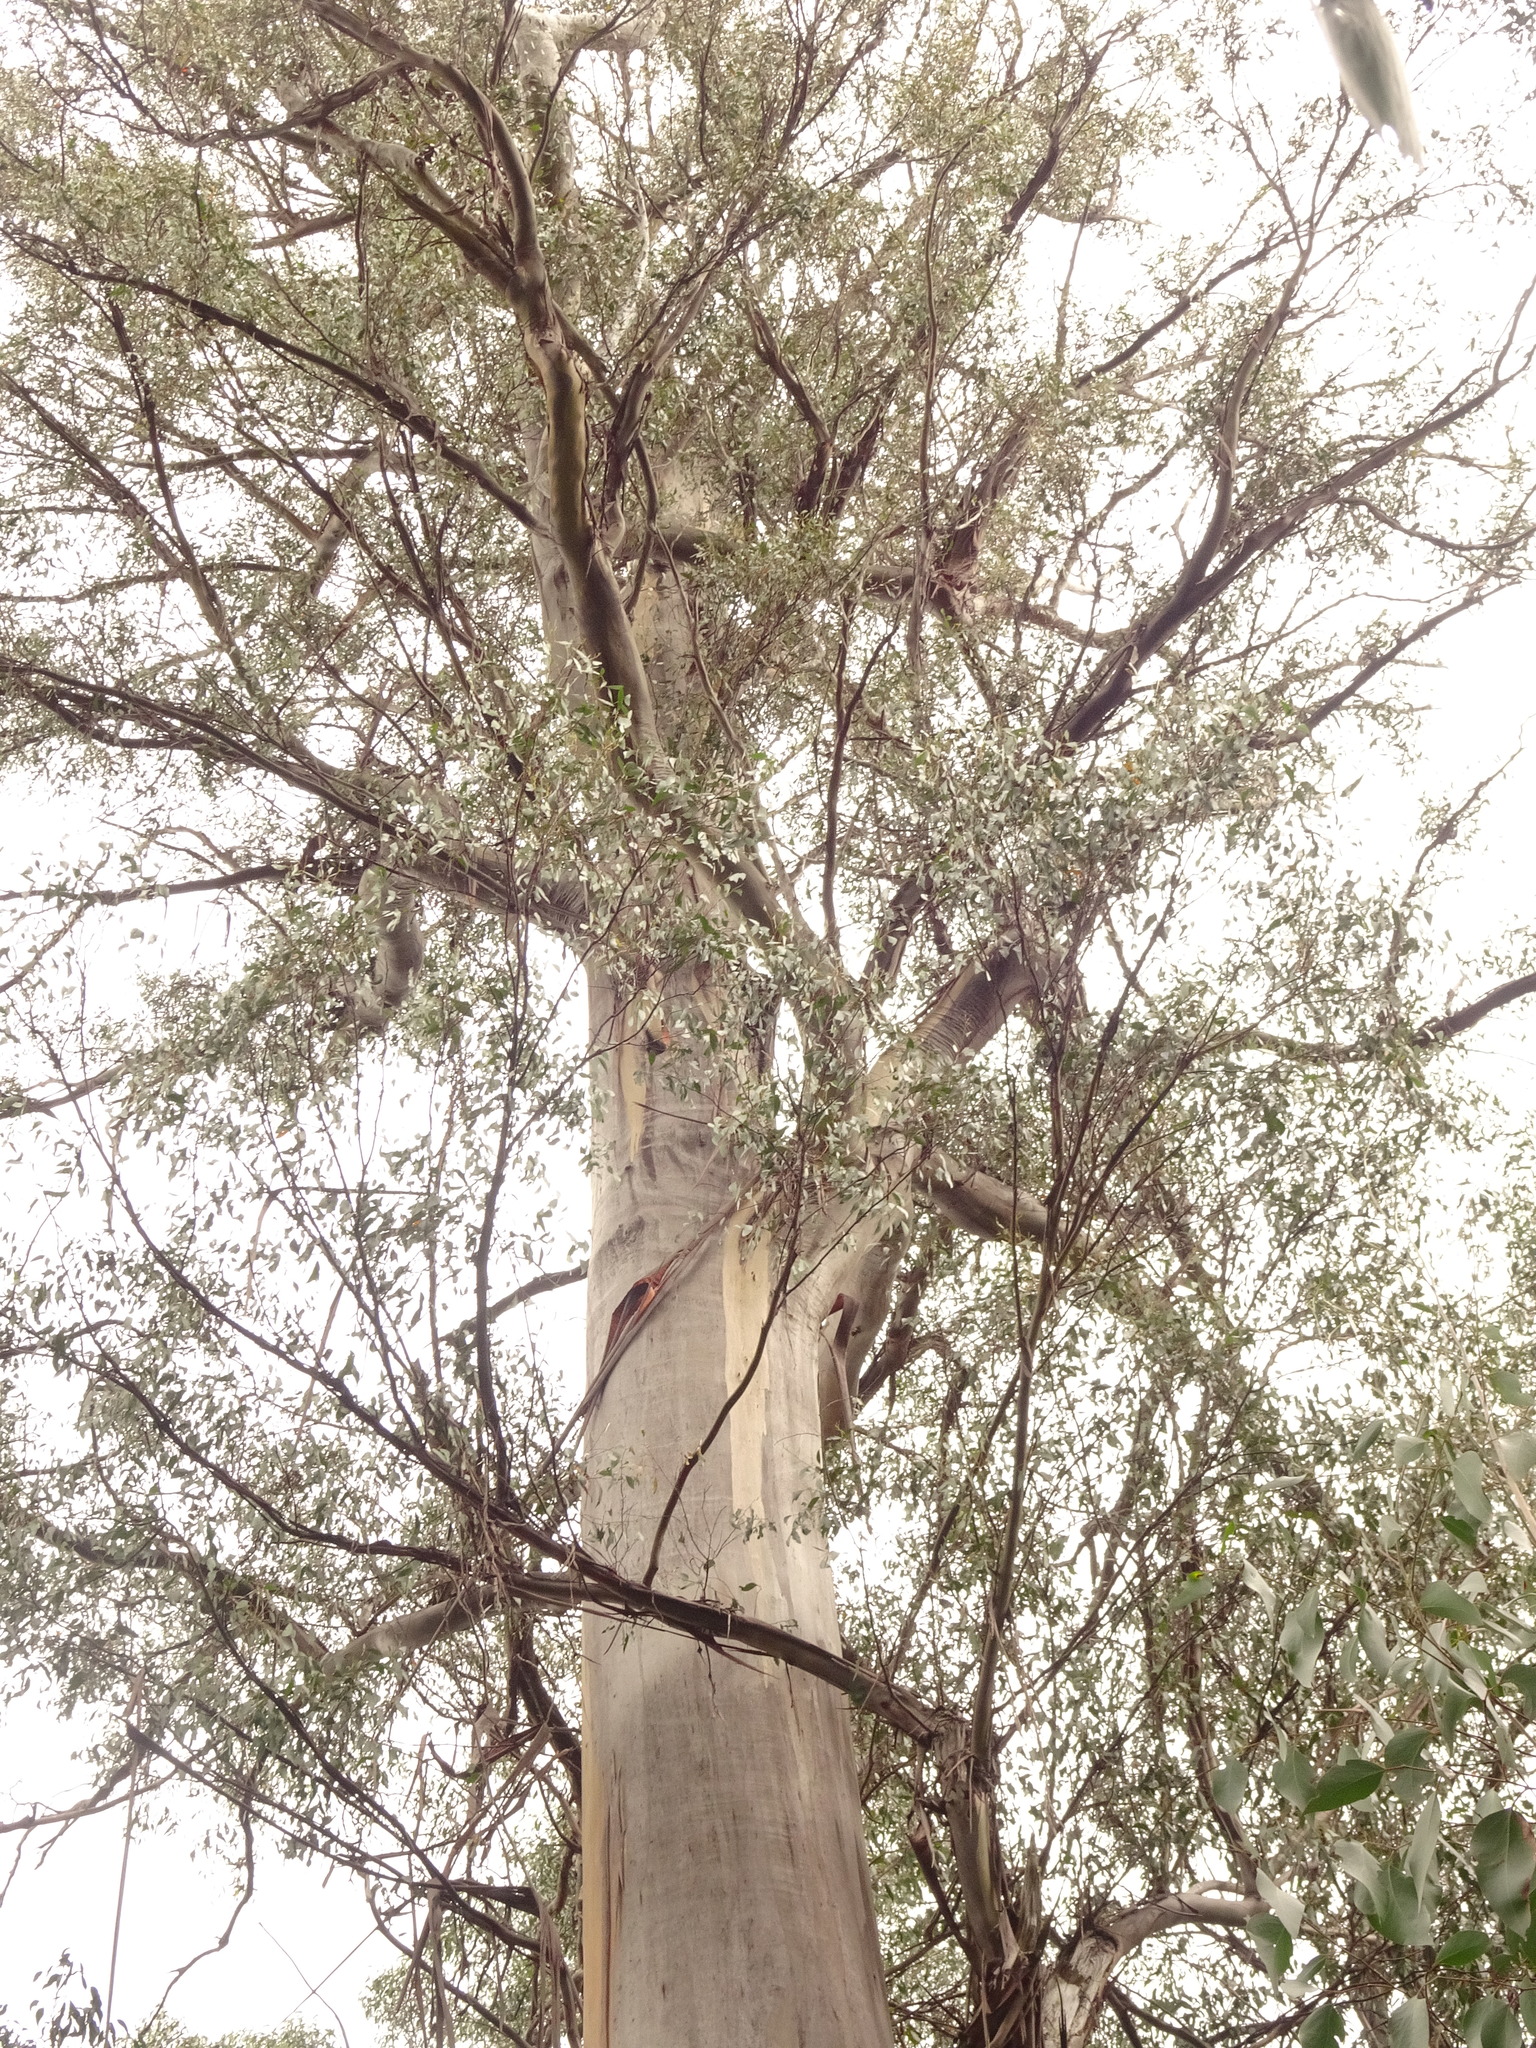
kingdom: Plantae
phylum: Tracheophyta
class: Magnoliopsida
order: Myrtales
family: Myrtaceae
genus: Eucalyptus
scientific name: Eucalyptus regnans
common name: Stringy gum
